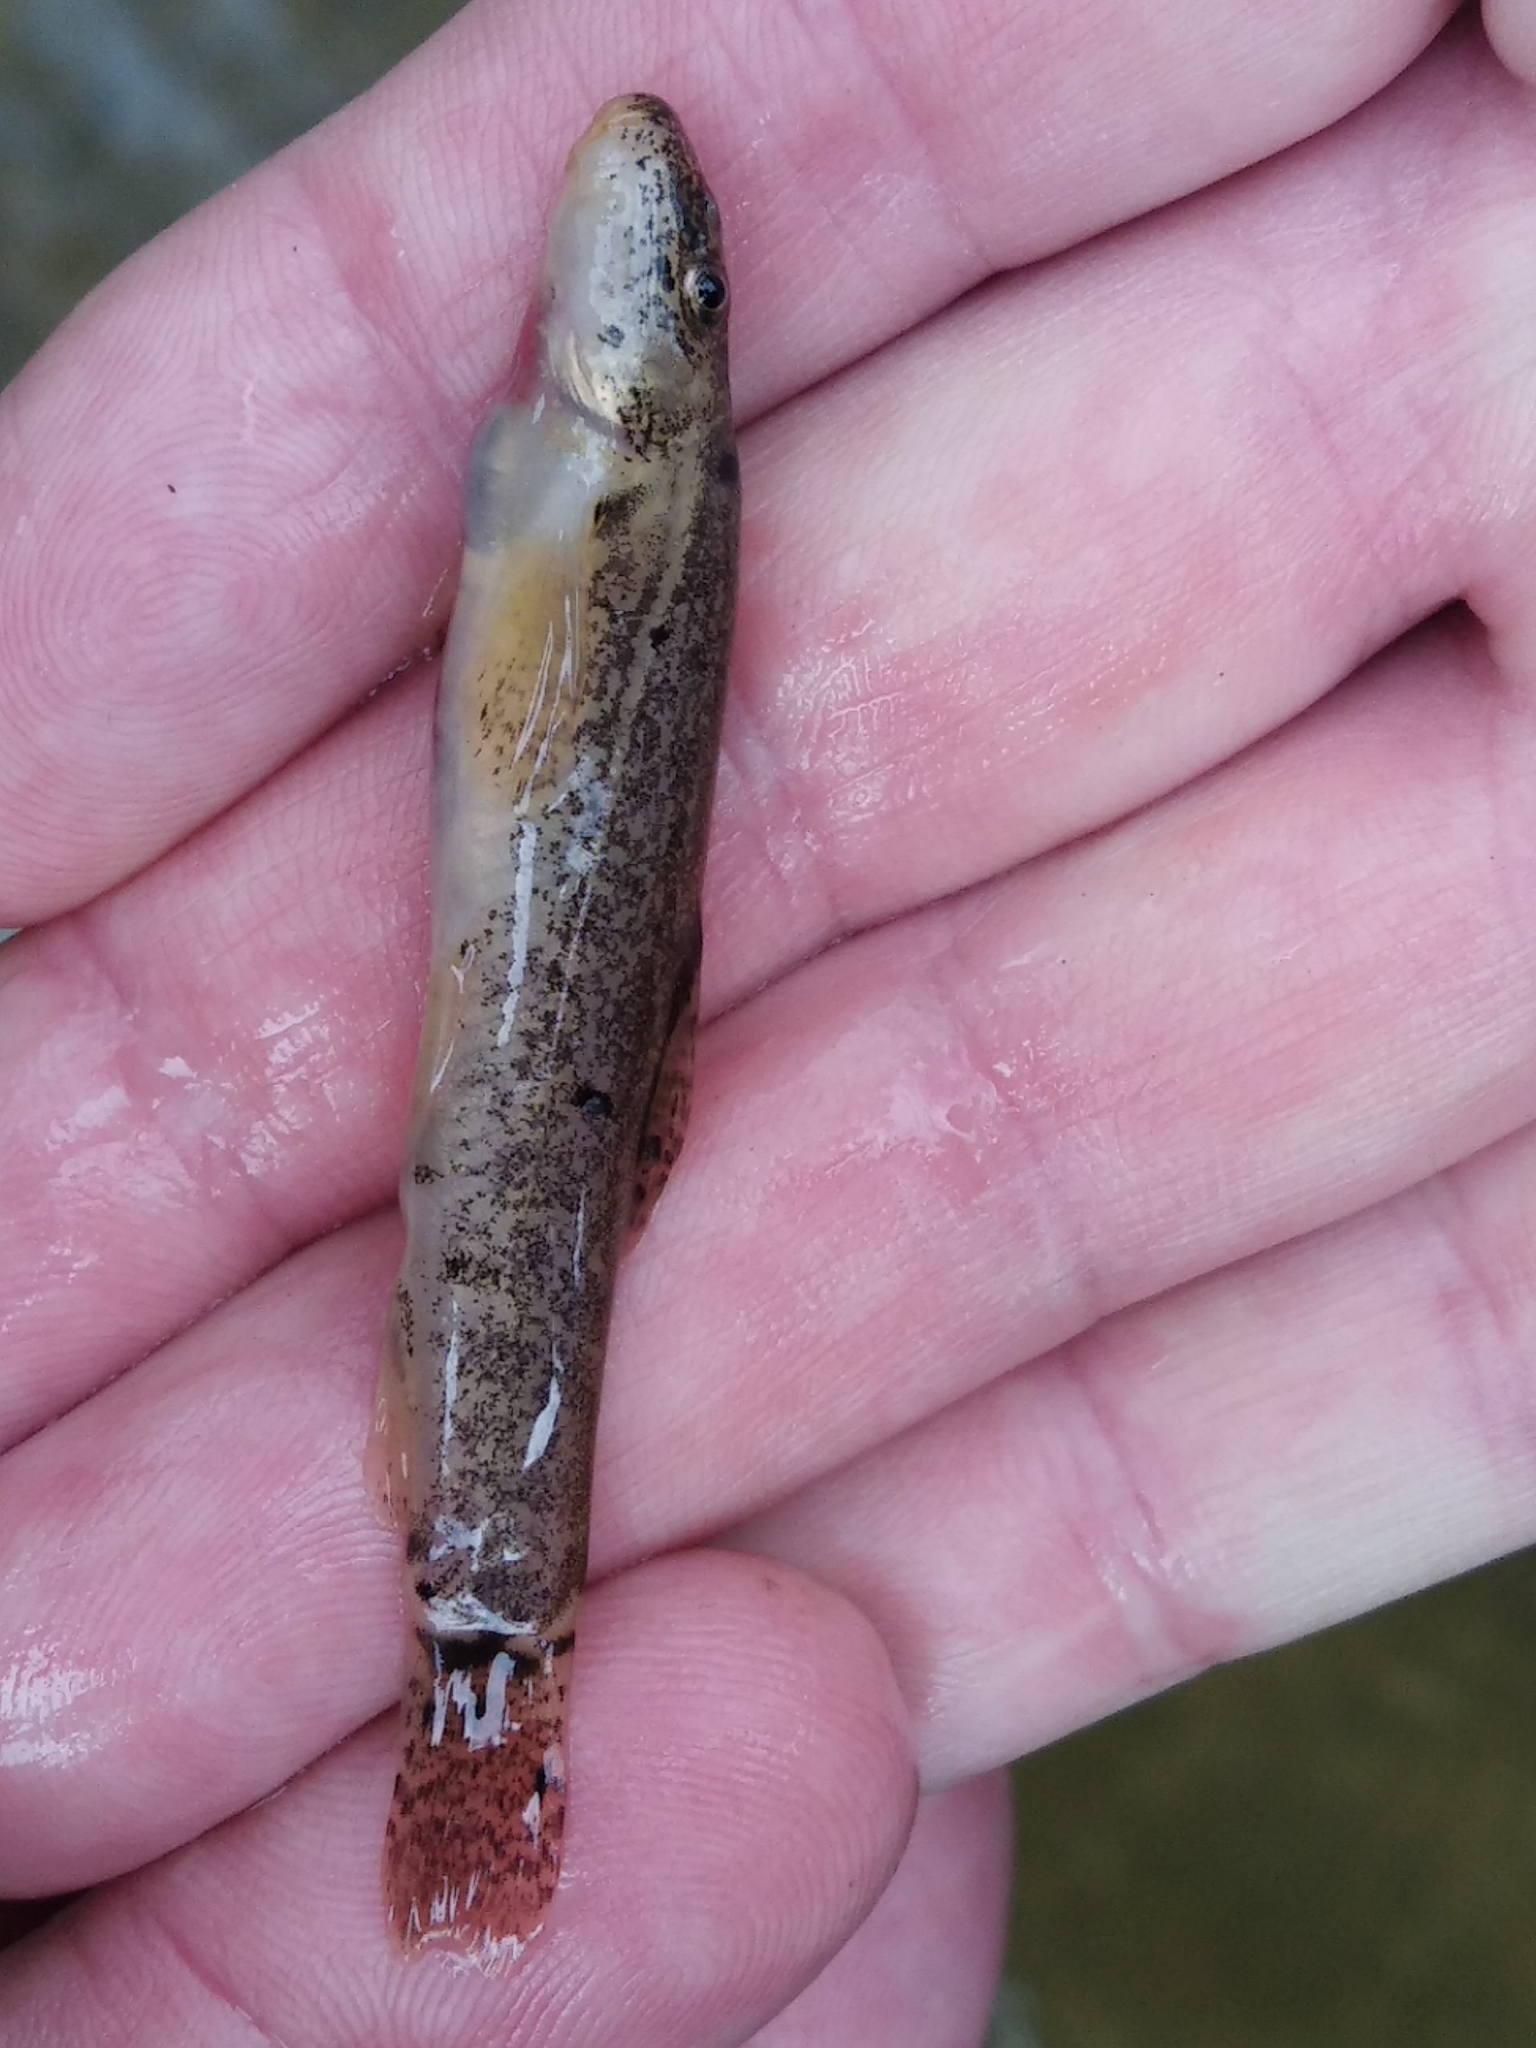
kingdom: Animalia
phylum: Chordata
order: Cypriniformes
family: Nemacheilidae
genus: Barbatula
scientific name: Barbatula barbatula
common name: Stone loach
